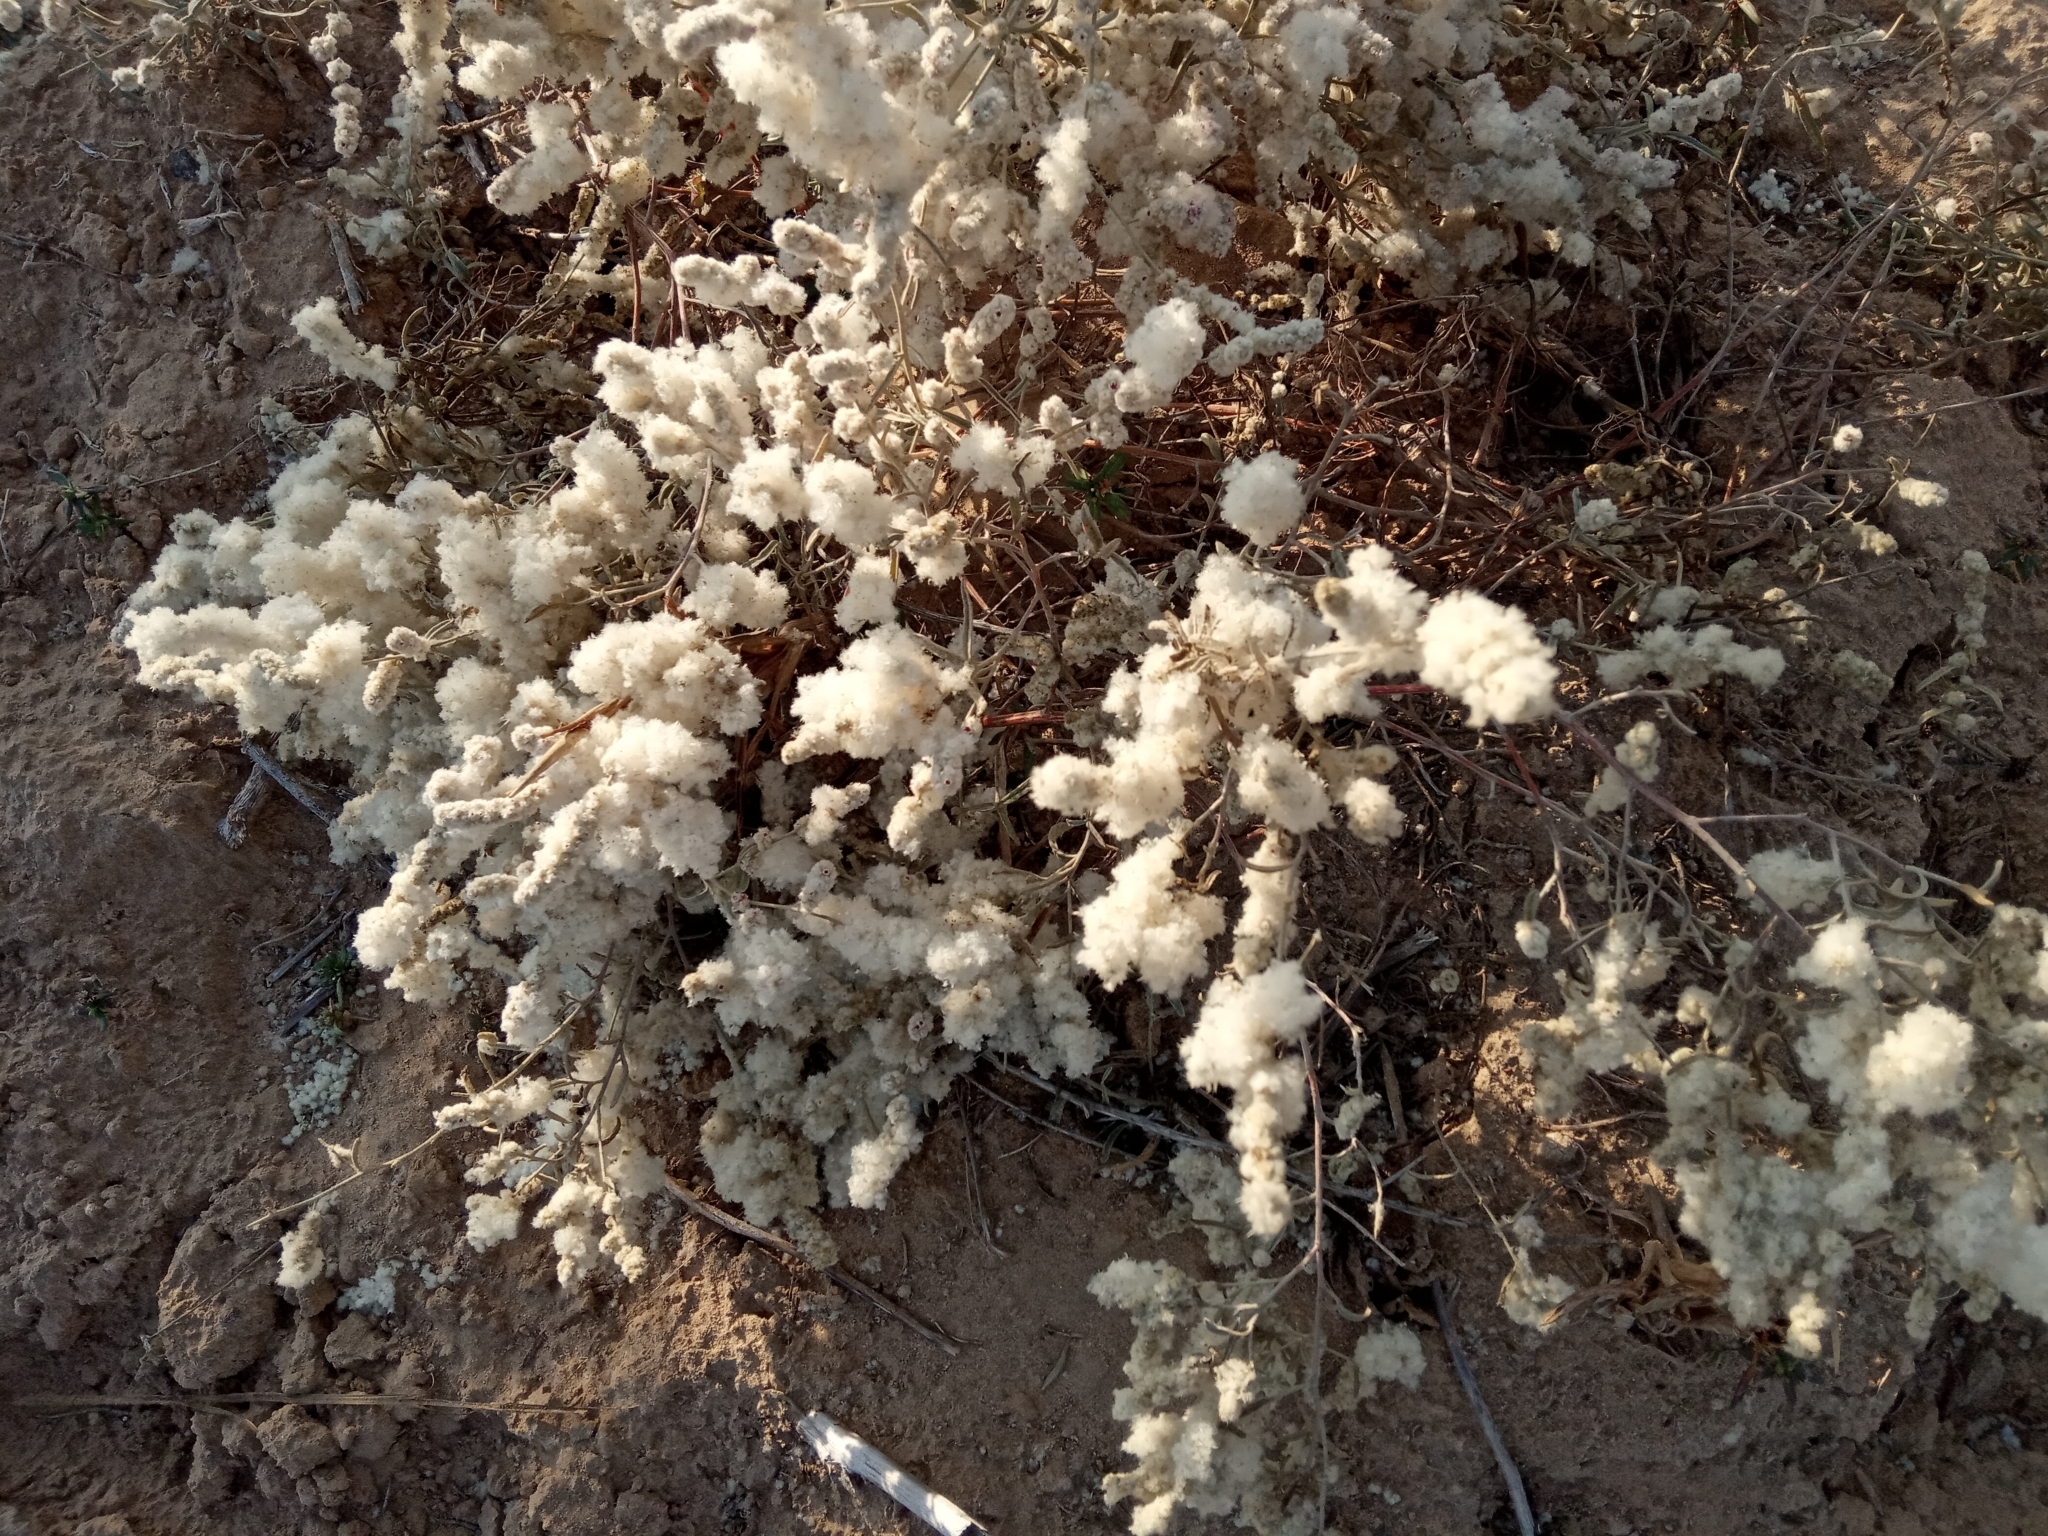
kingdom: Plantae
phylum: Tracheophyta
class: Magnoliopsida
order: Caryophyllales
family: Amaranthaceae
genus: Aerva
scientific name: Aerva javanica
